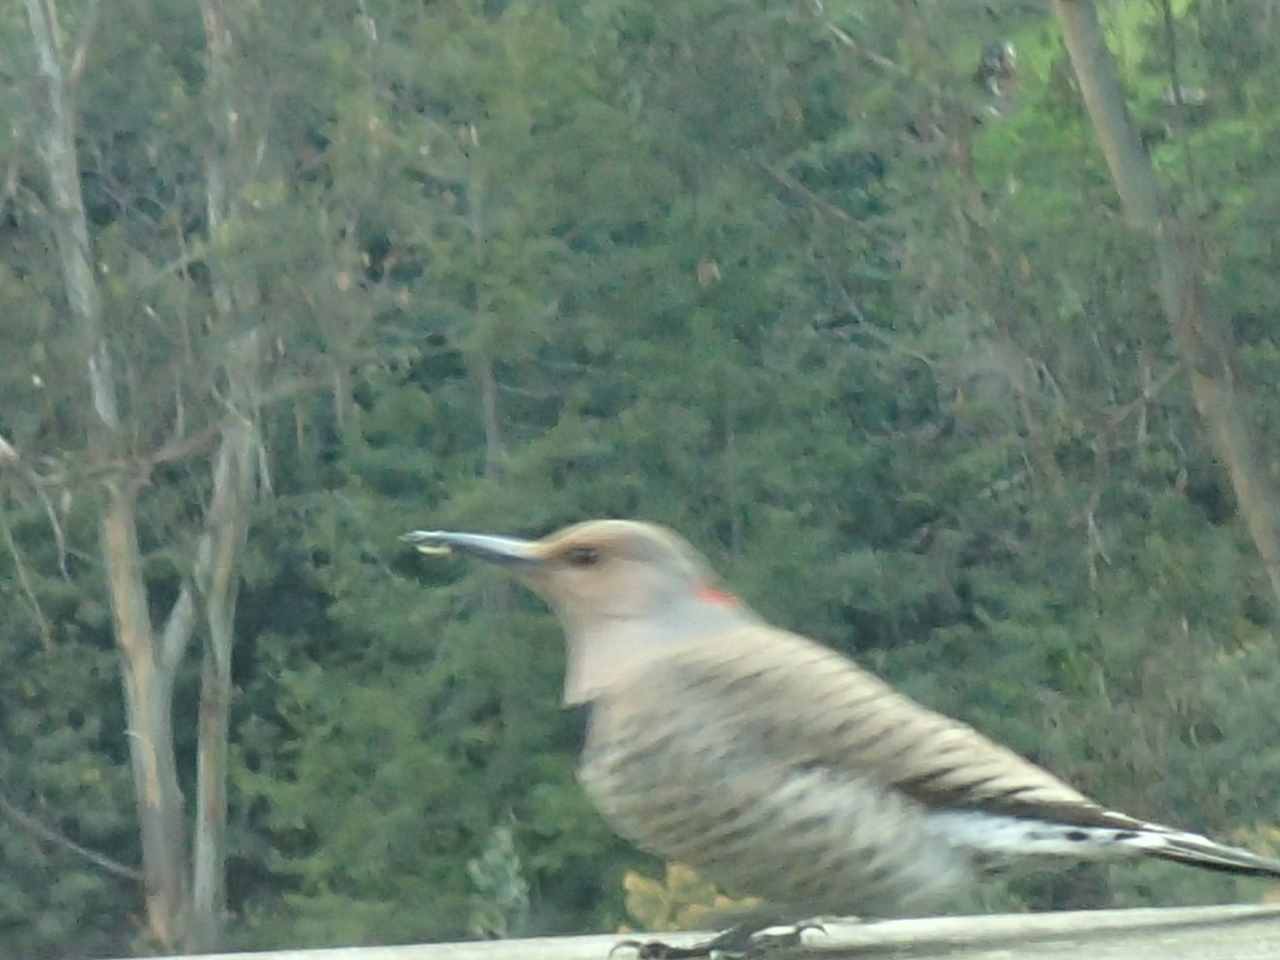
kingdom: Animalia
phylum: Chordata
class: Aves
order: Piciformes
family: Picidae
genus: Colaptes
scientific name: Colaptes auratus
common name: Northern flicker
